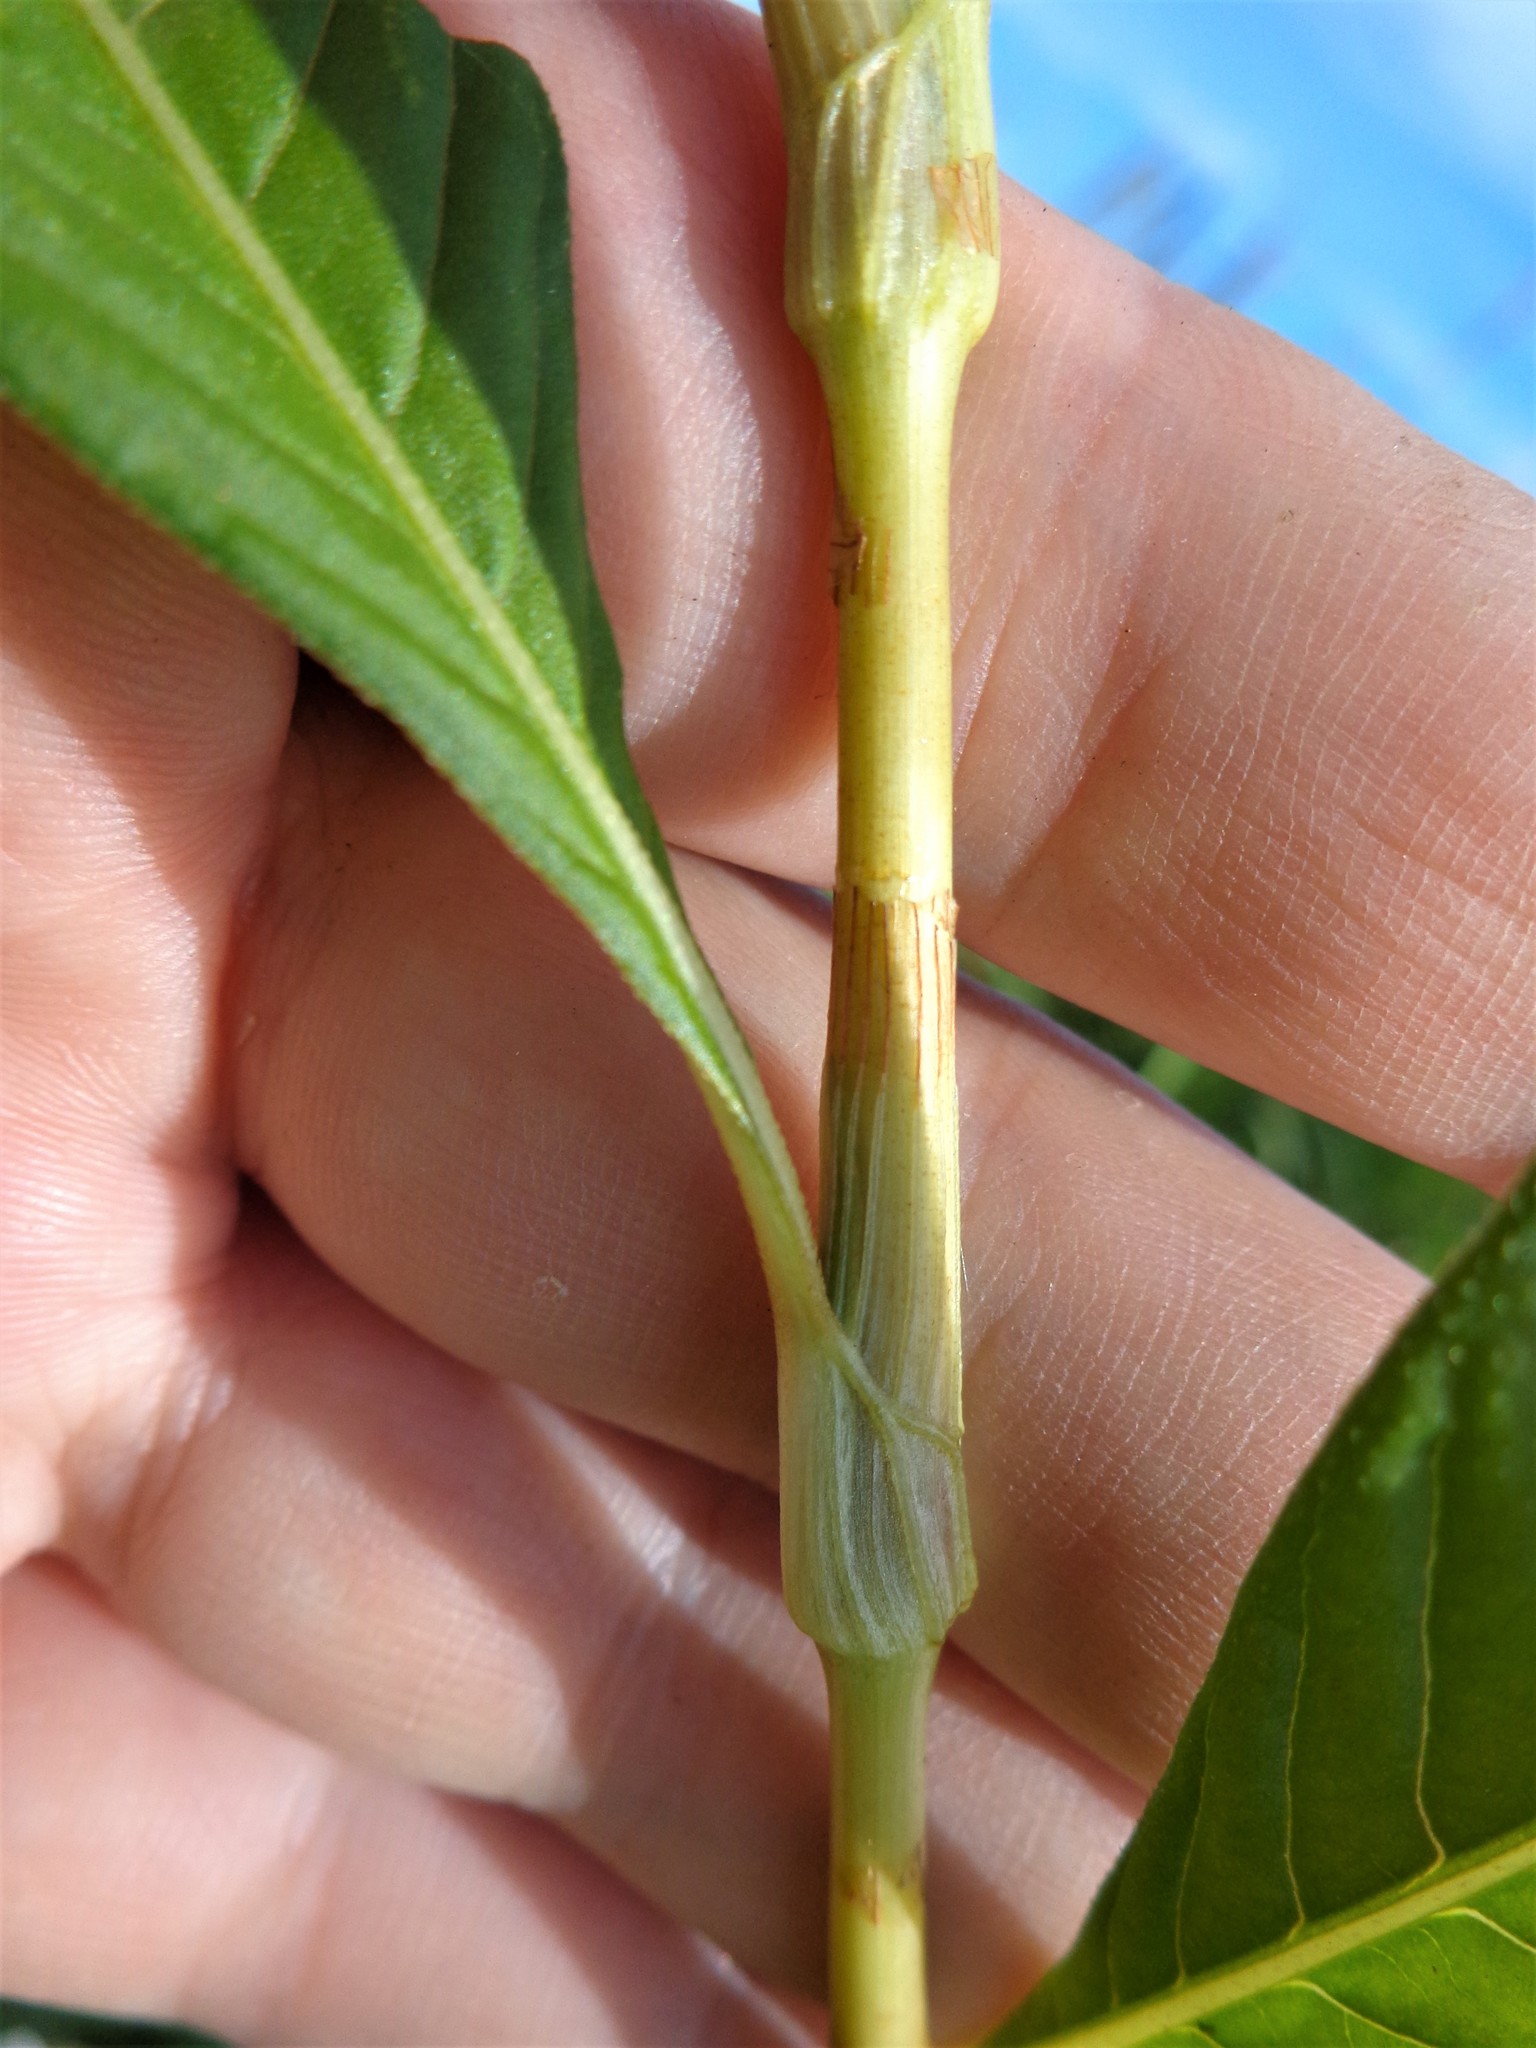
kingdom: Plantae
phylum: Tracheophyta
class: Magnoliopsida
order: Caryophyllales
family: Polygonaceae
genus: Persicaria
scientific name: Persicaria lapathifolia
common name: Curlytop knotweed
